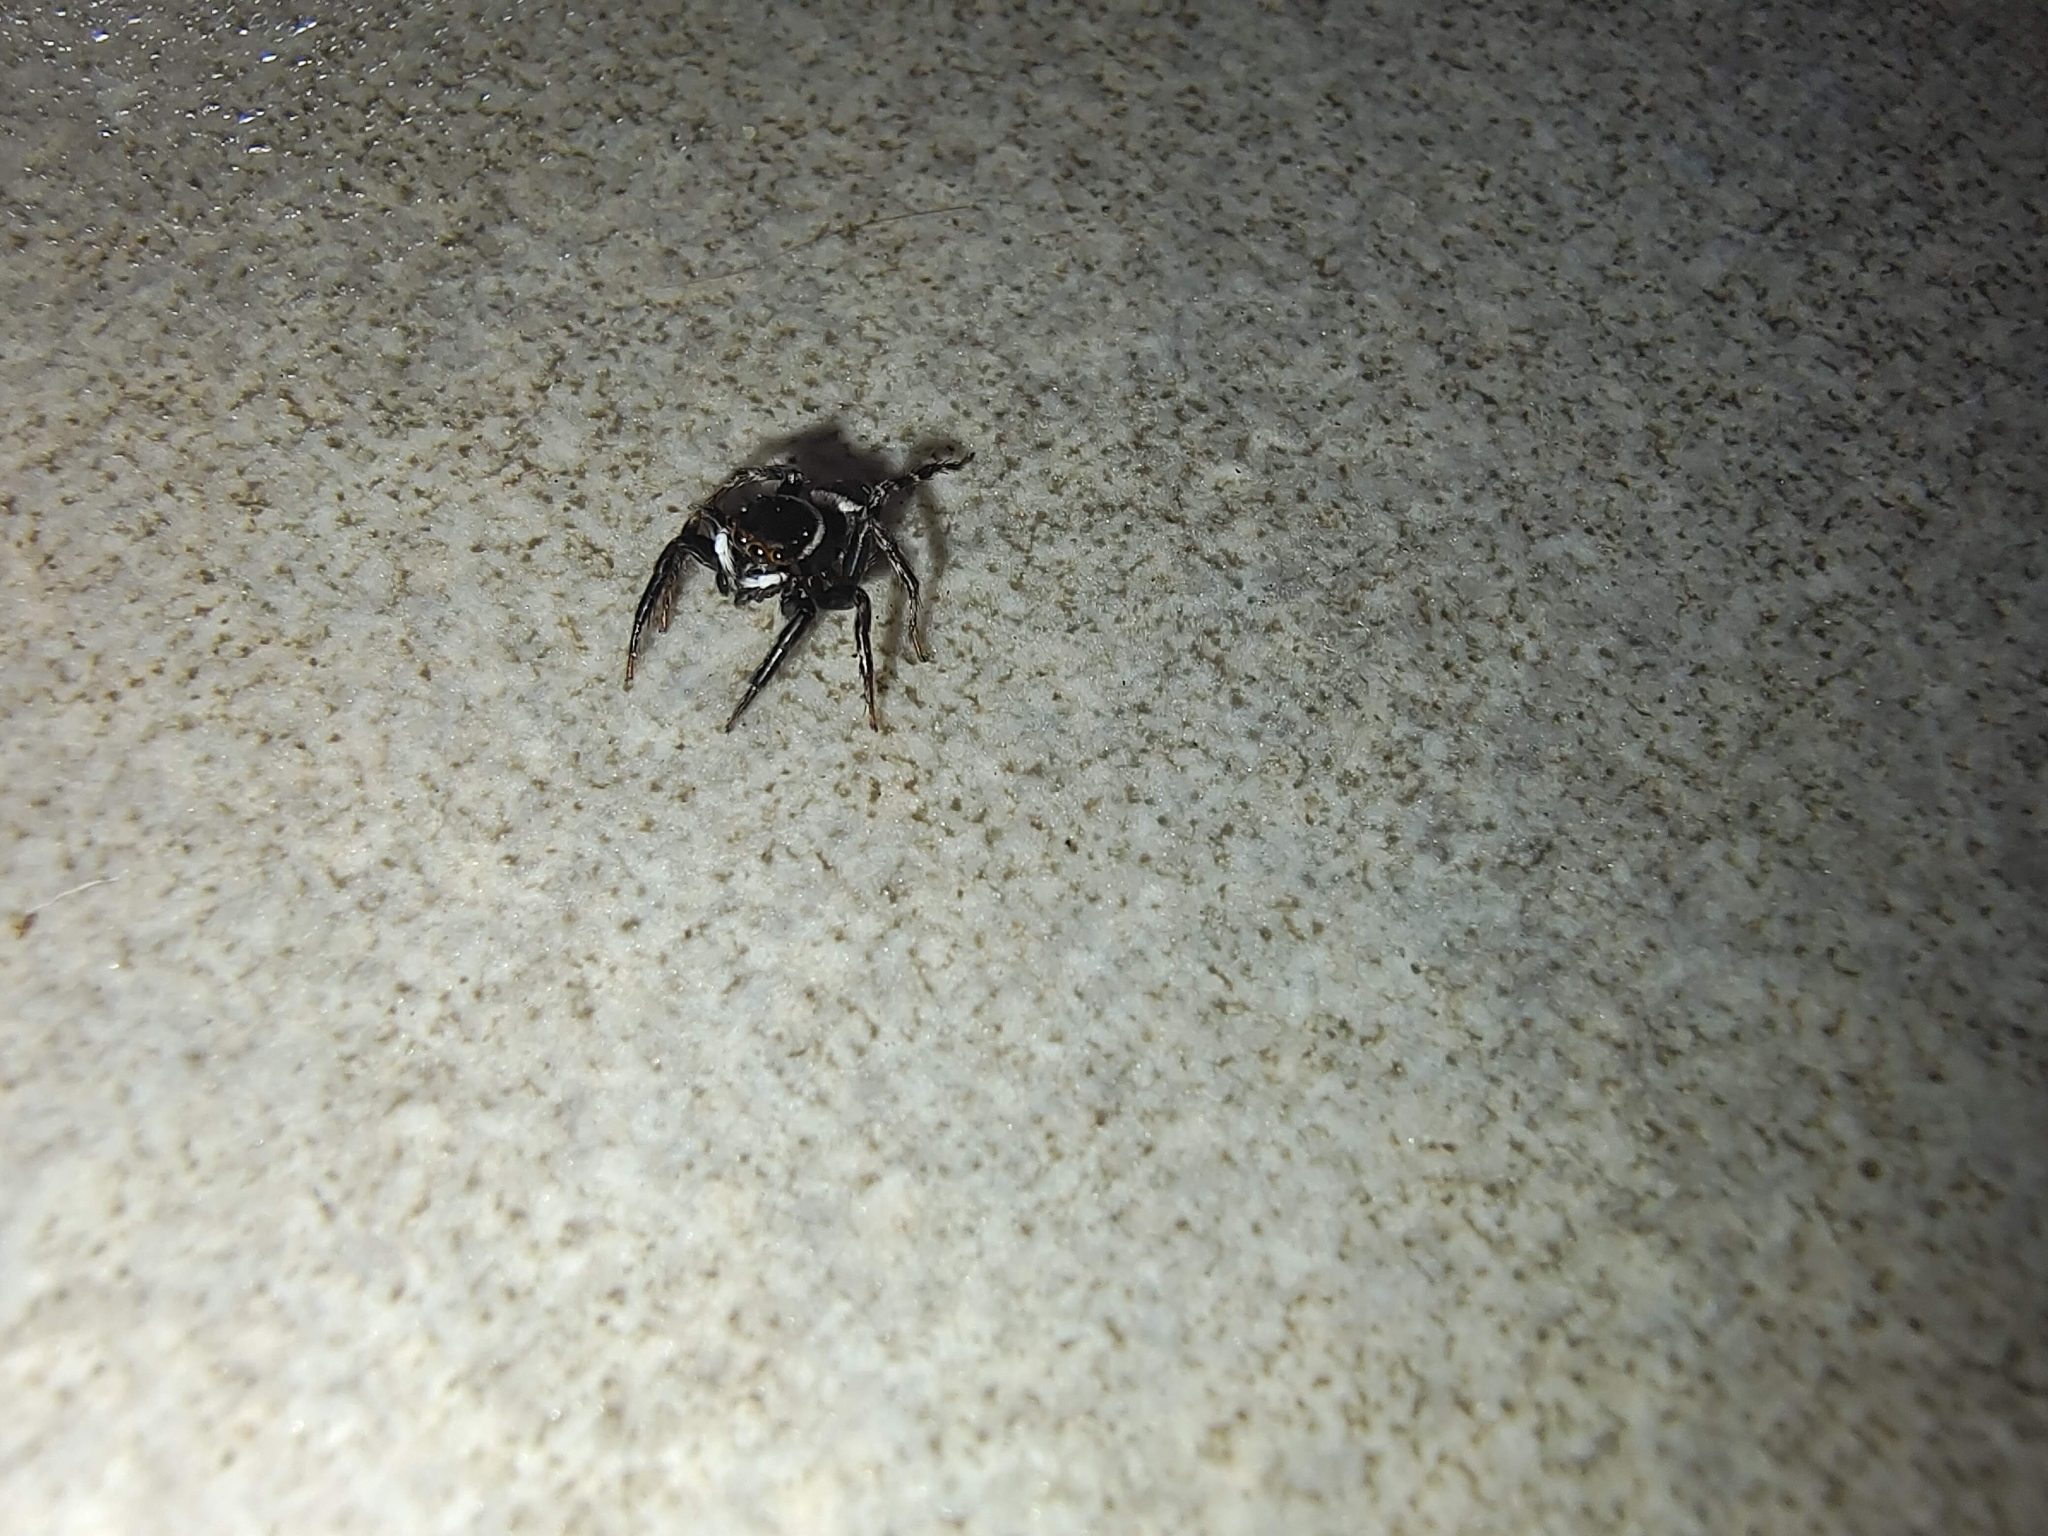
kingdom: Animalia
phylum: Arthropoda
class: Arachnida
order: Araneae
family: Salticidae
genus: Hasarius
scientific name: Hasarius adansoni
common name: Jumping spider
